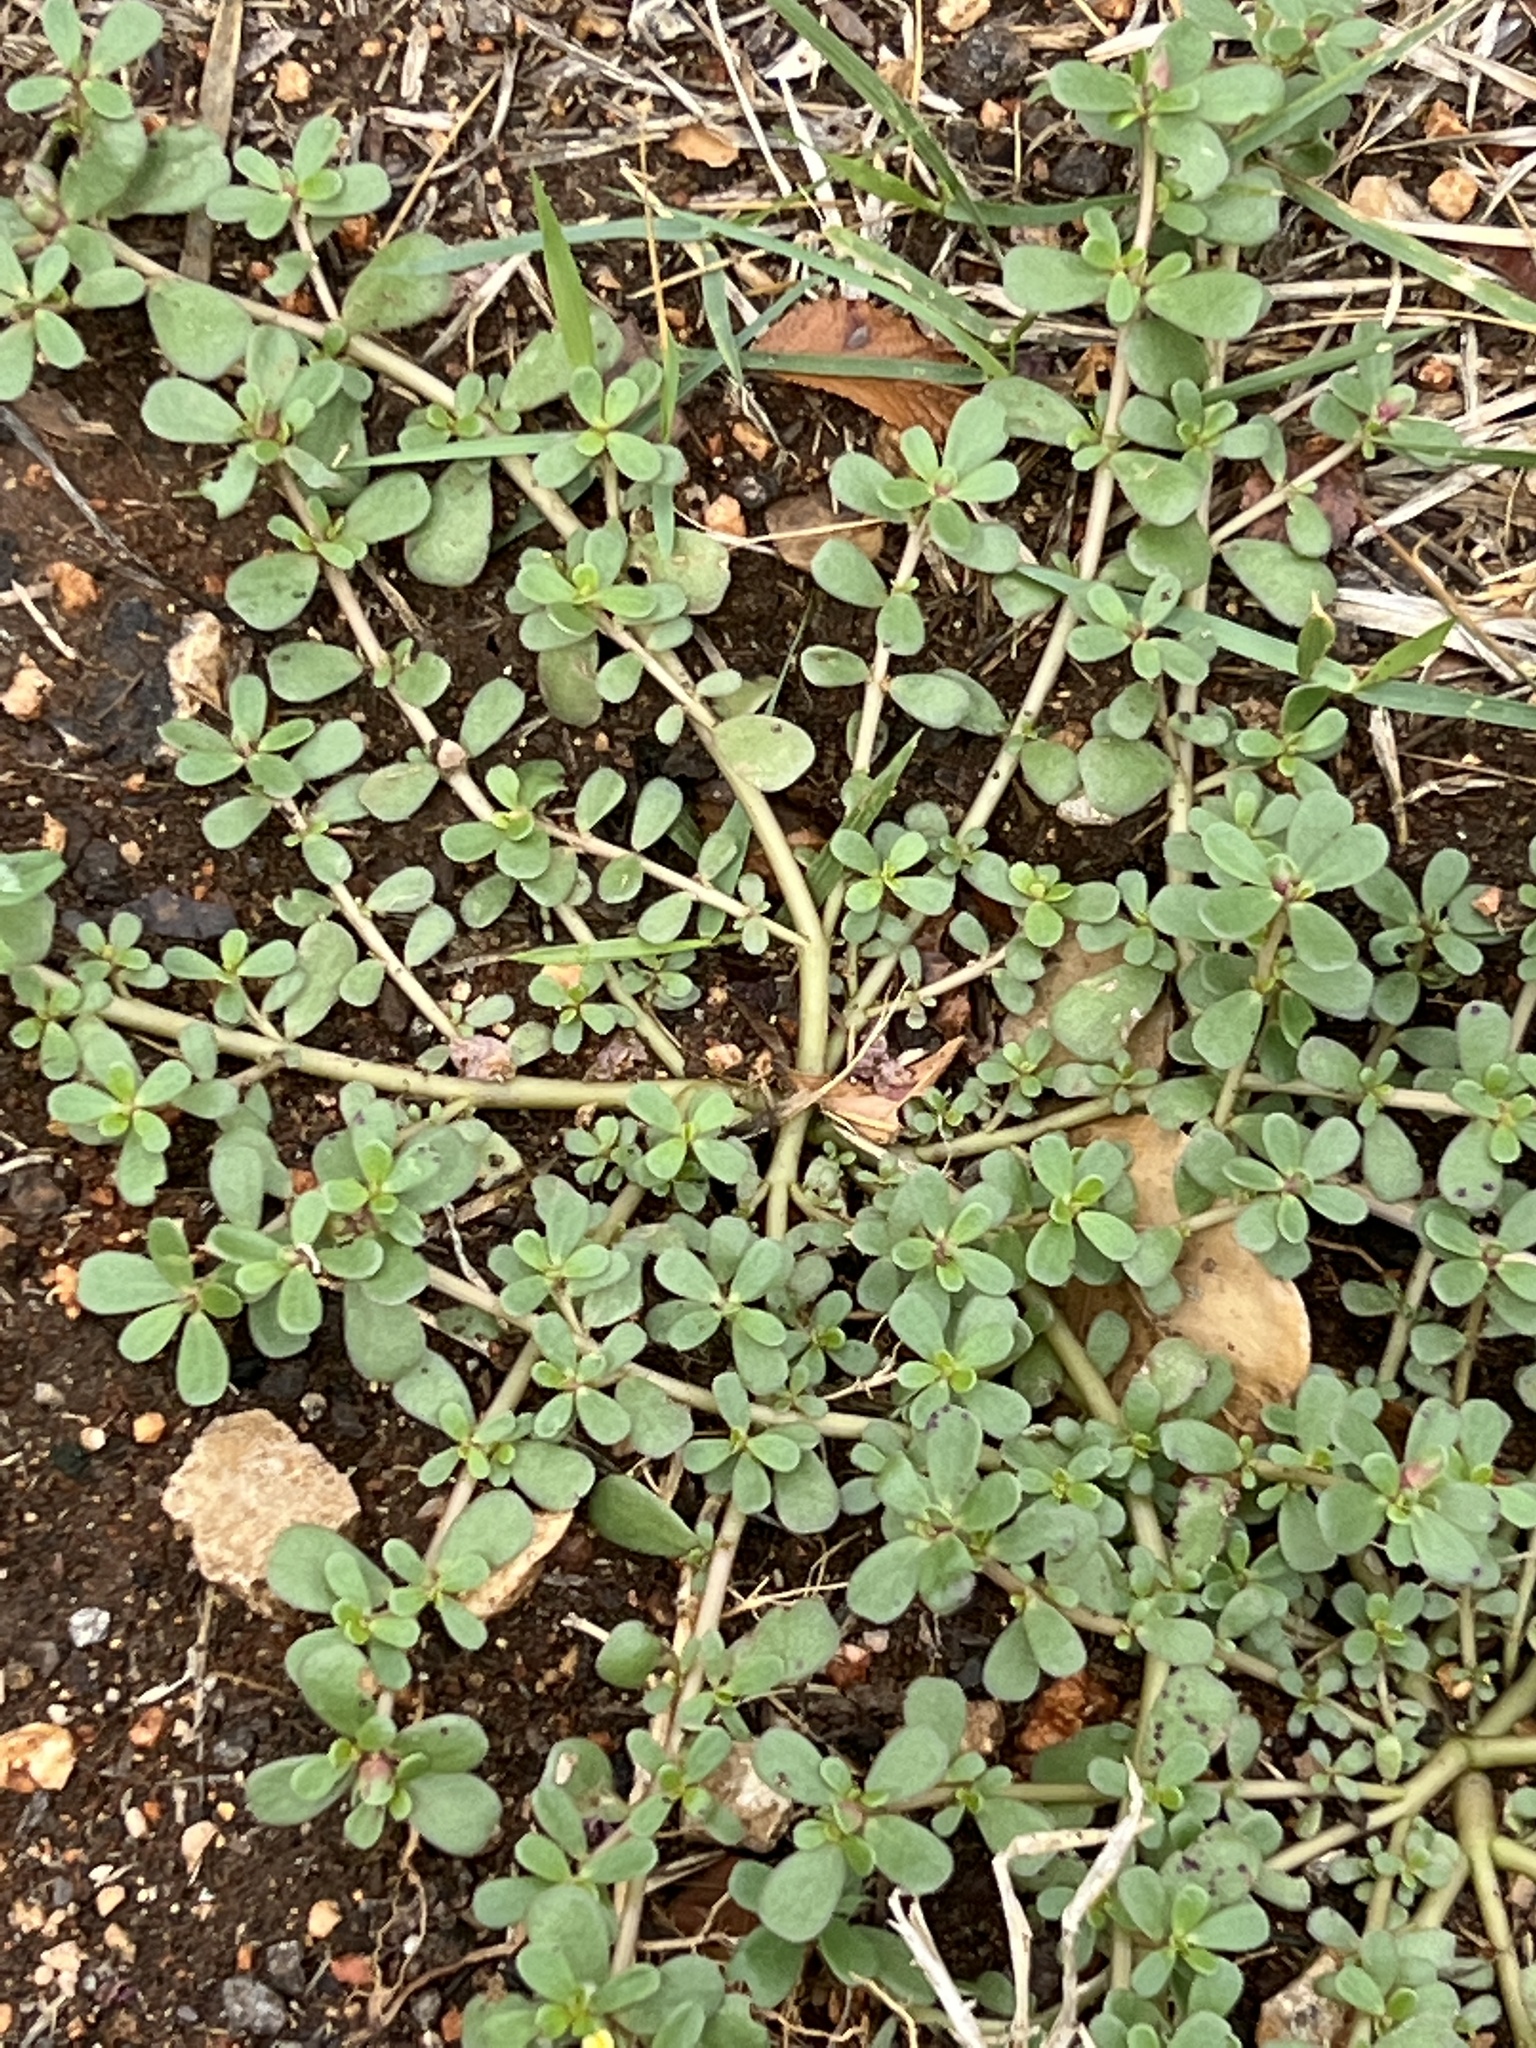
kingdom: Plantae
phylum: Tracheophyta
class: Magnoliopsida
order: Caryophyllales
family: Portulacaceae
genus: Portulaca
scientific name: Portulaca oleracea
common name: Common purslane
